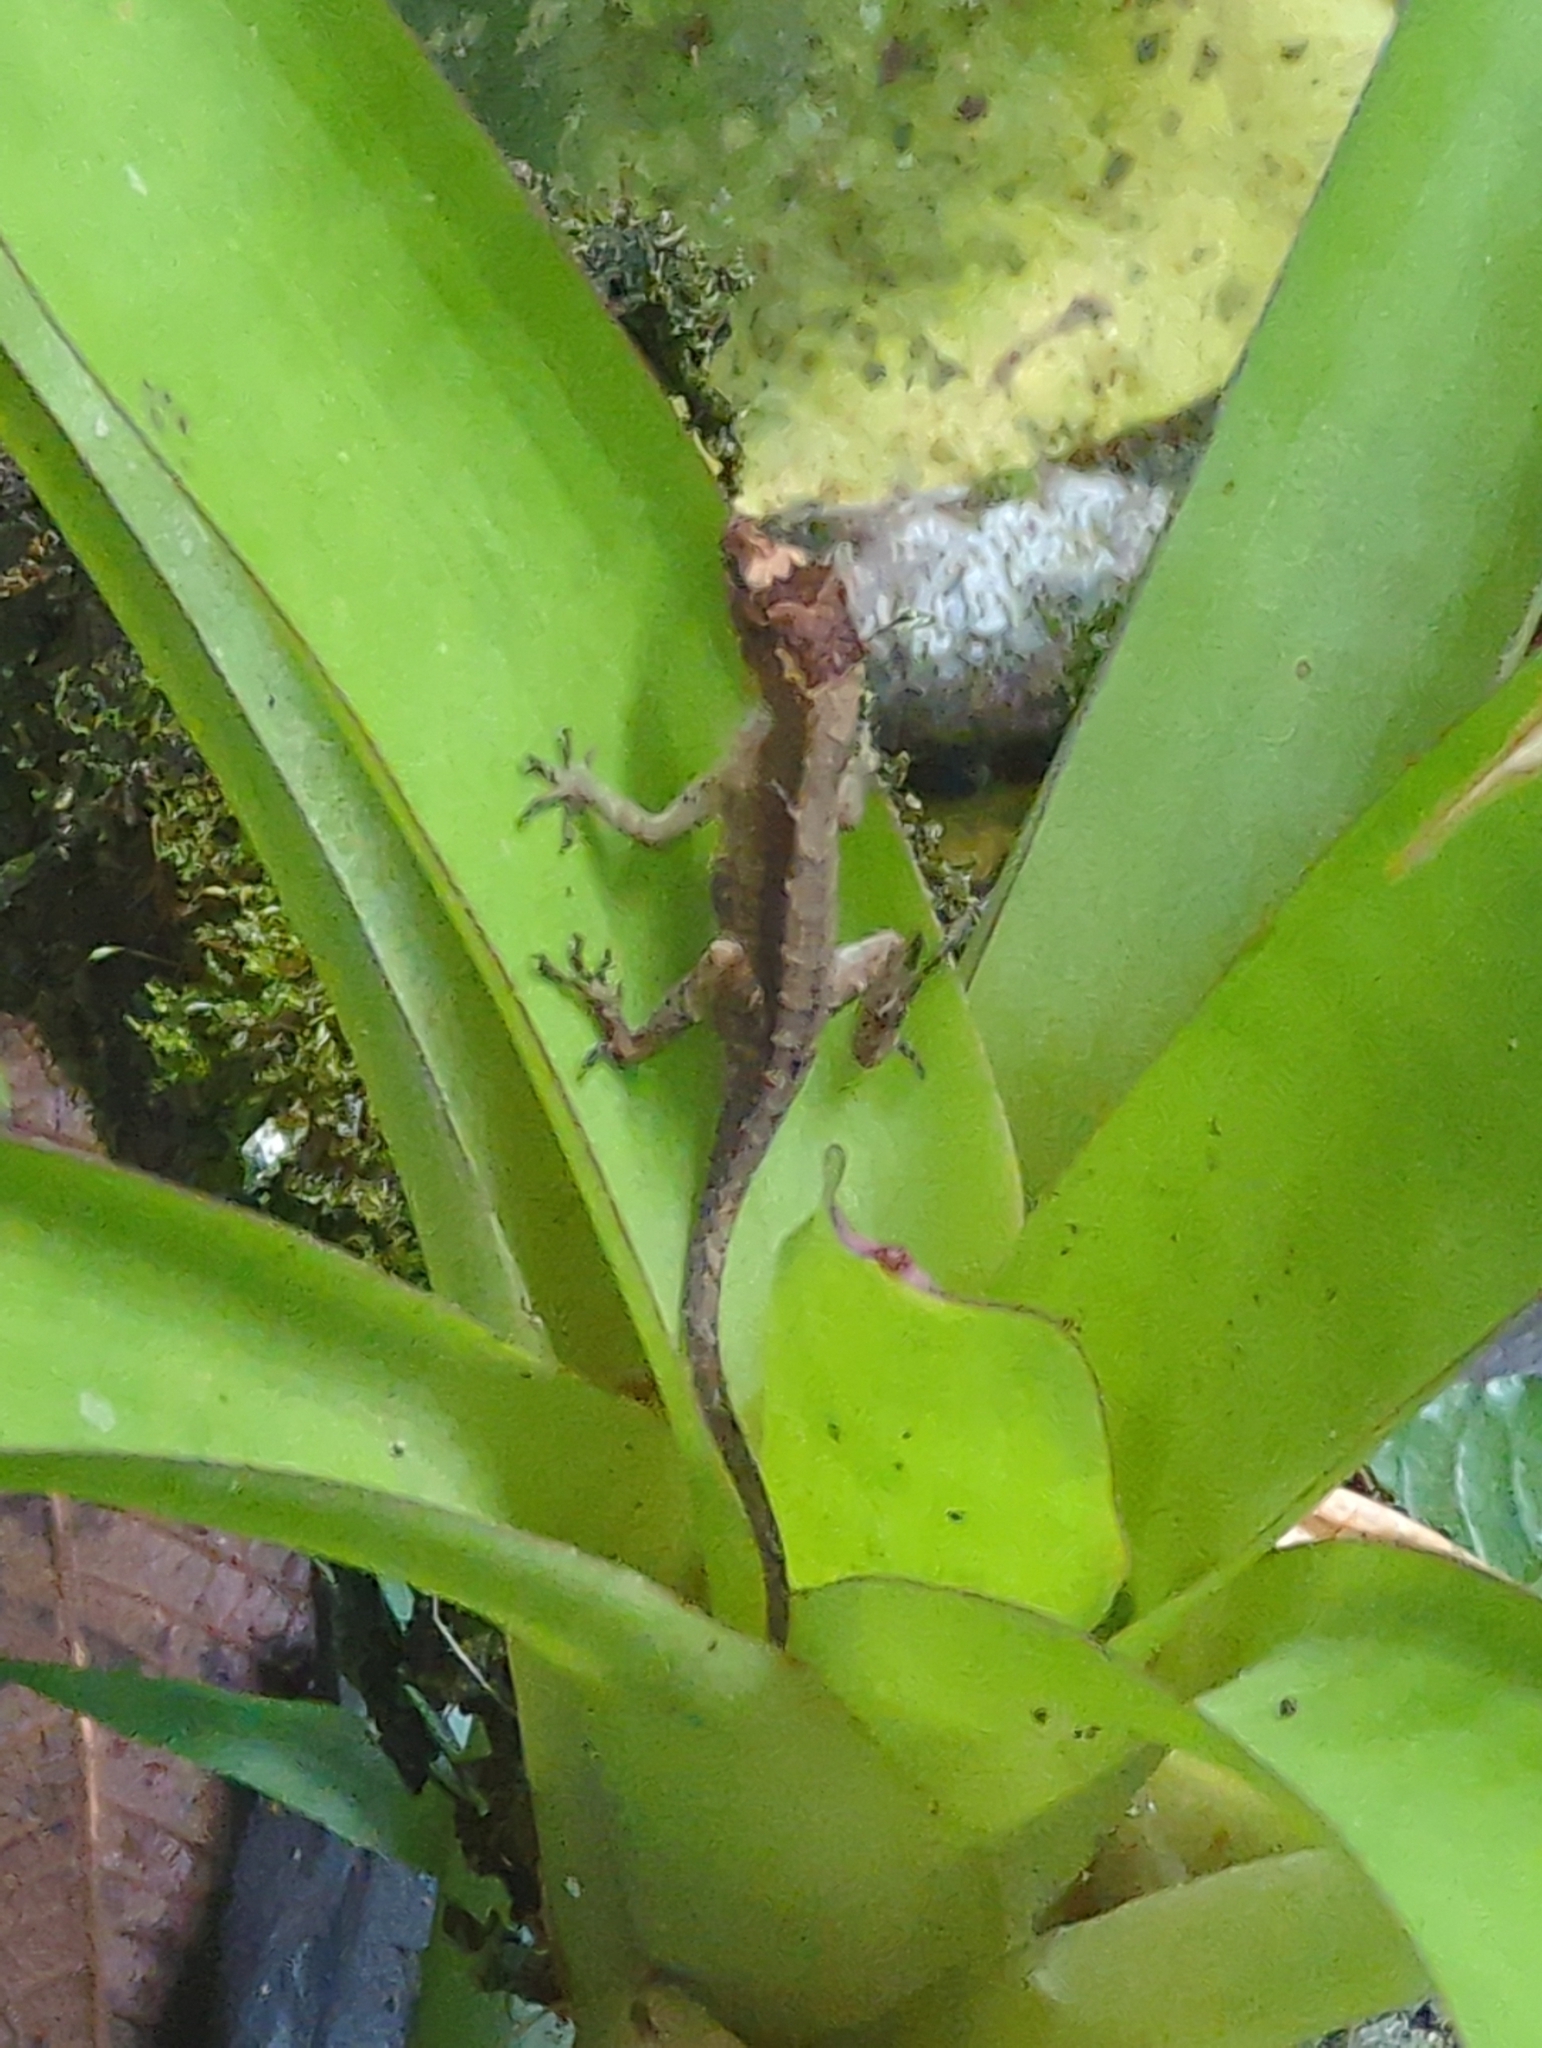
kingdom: Animalia
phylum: Chordata
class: Squamata
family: Dactyloidae
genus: Anolis
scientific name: Anolis humilis
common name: Humble anole
